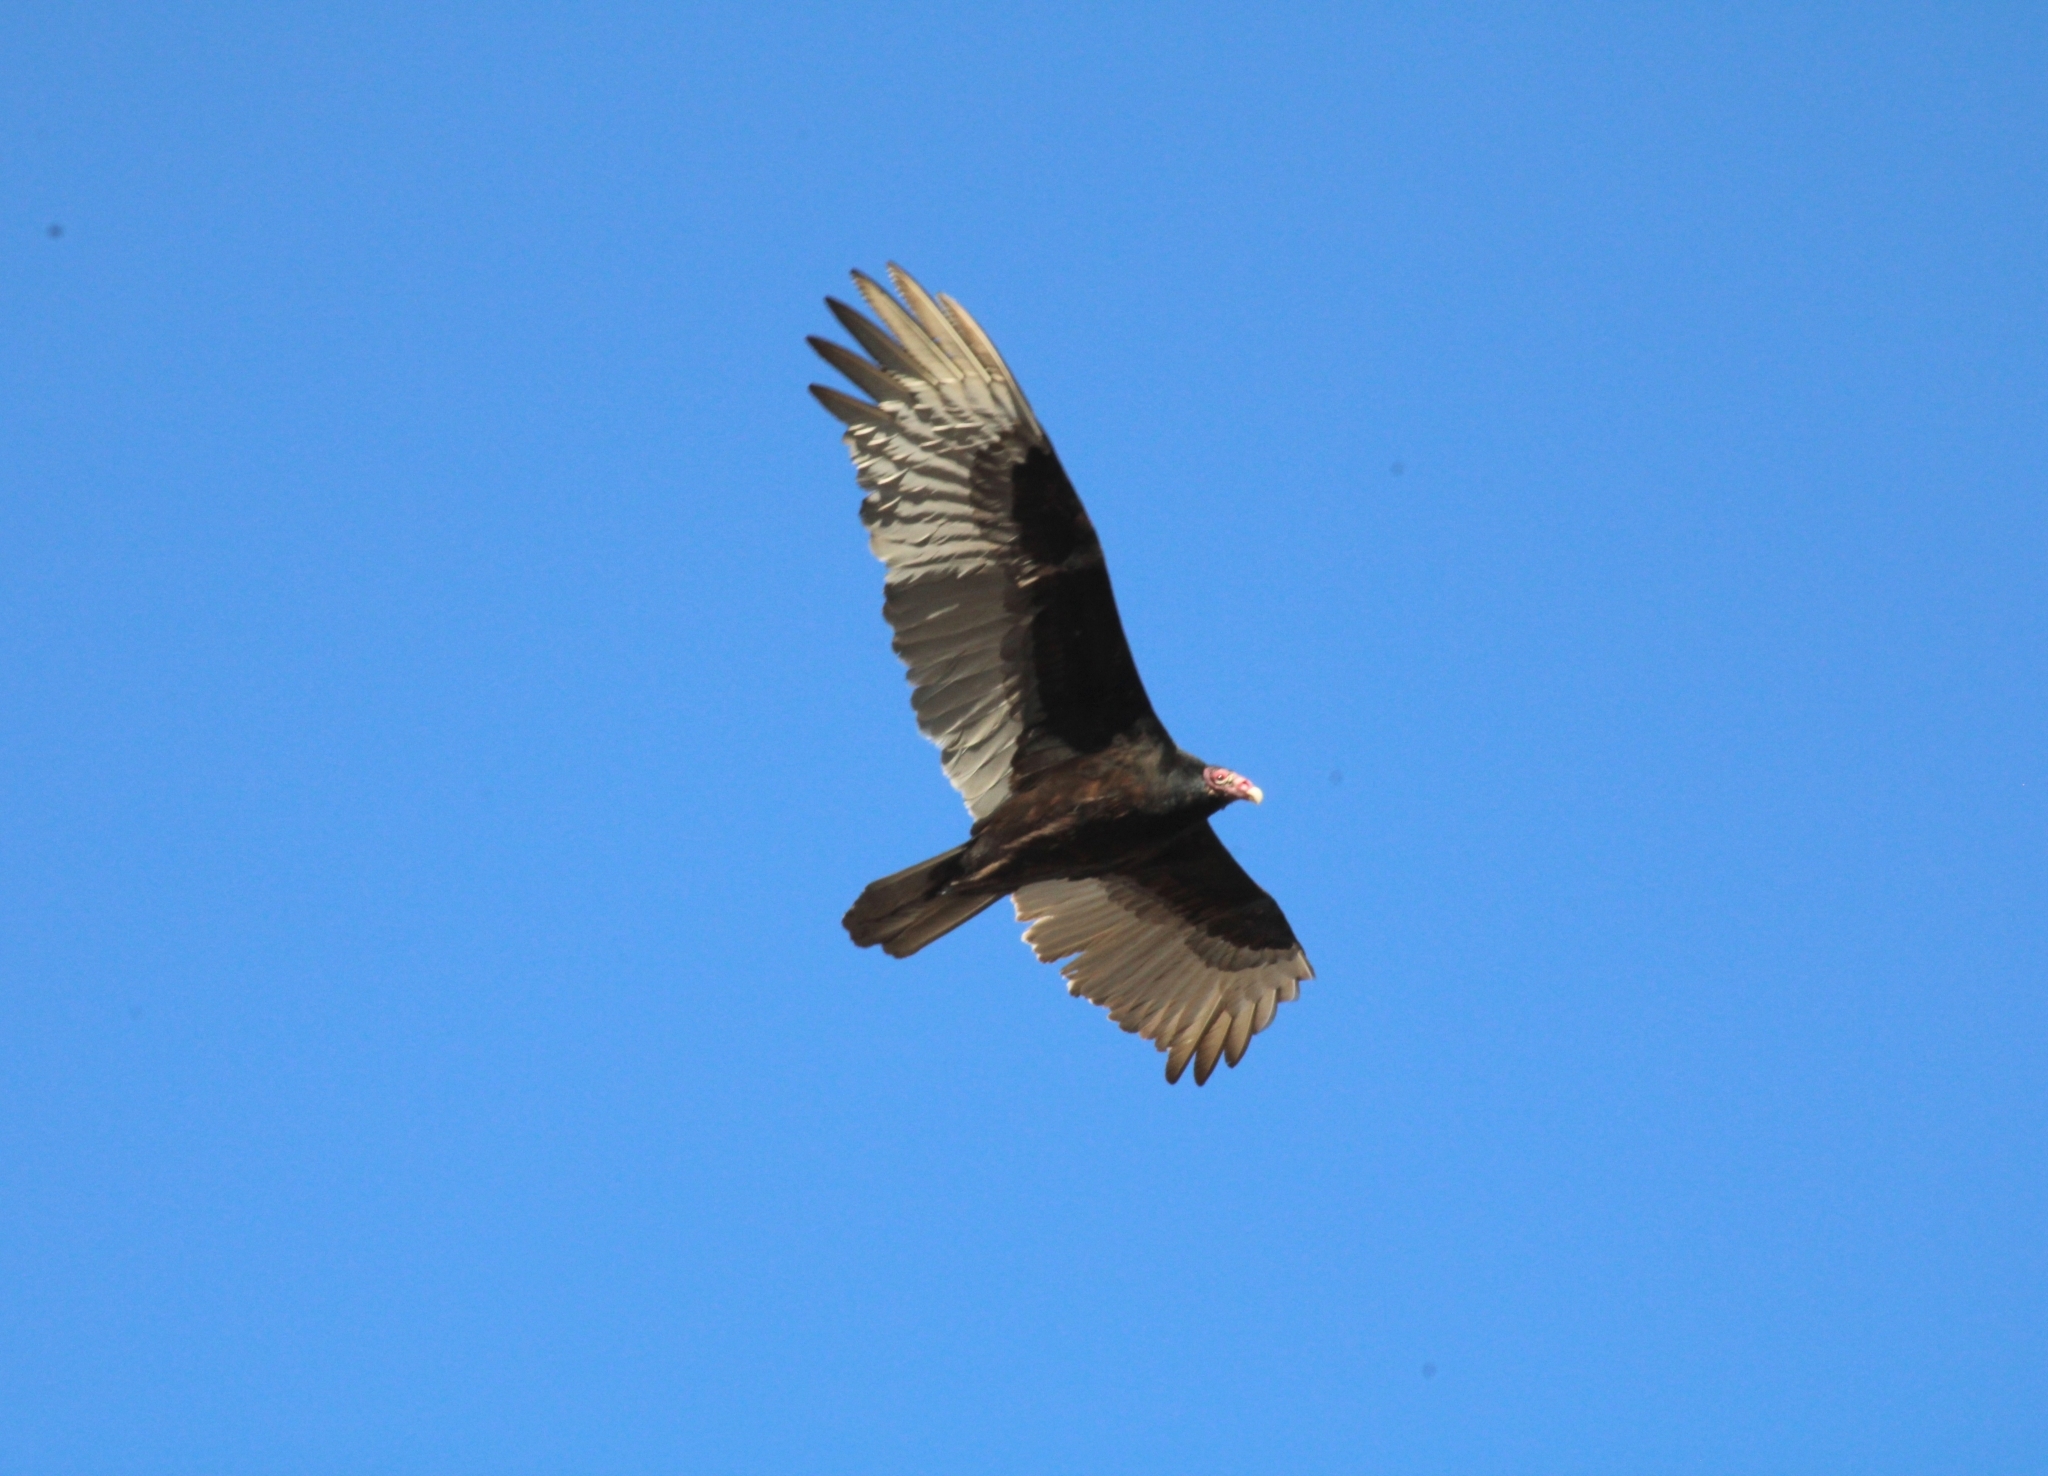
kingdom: Animalia
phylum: Chordata
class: Aves
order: Accipitriformes
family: Cathartidae
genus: Cathartes
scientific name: Cathartes aura
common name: Turkey vulture
